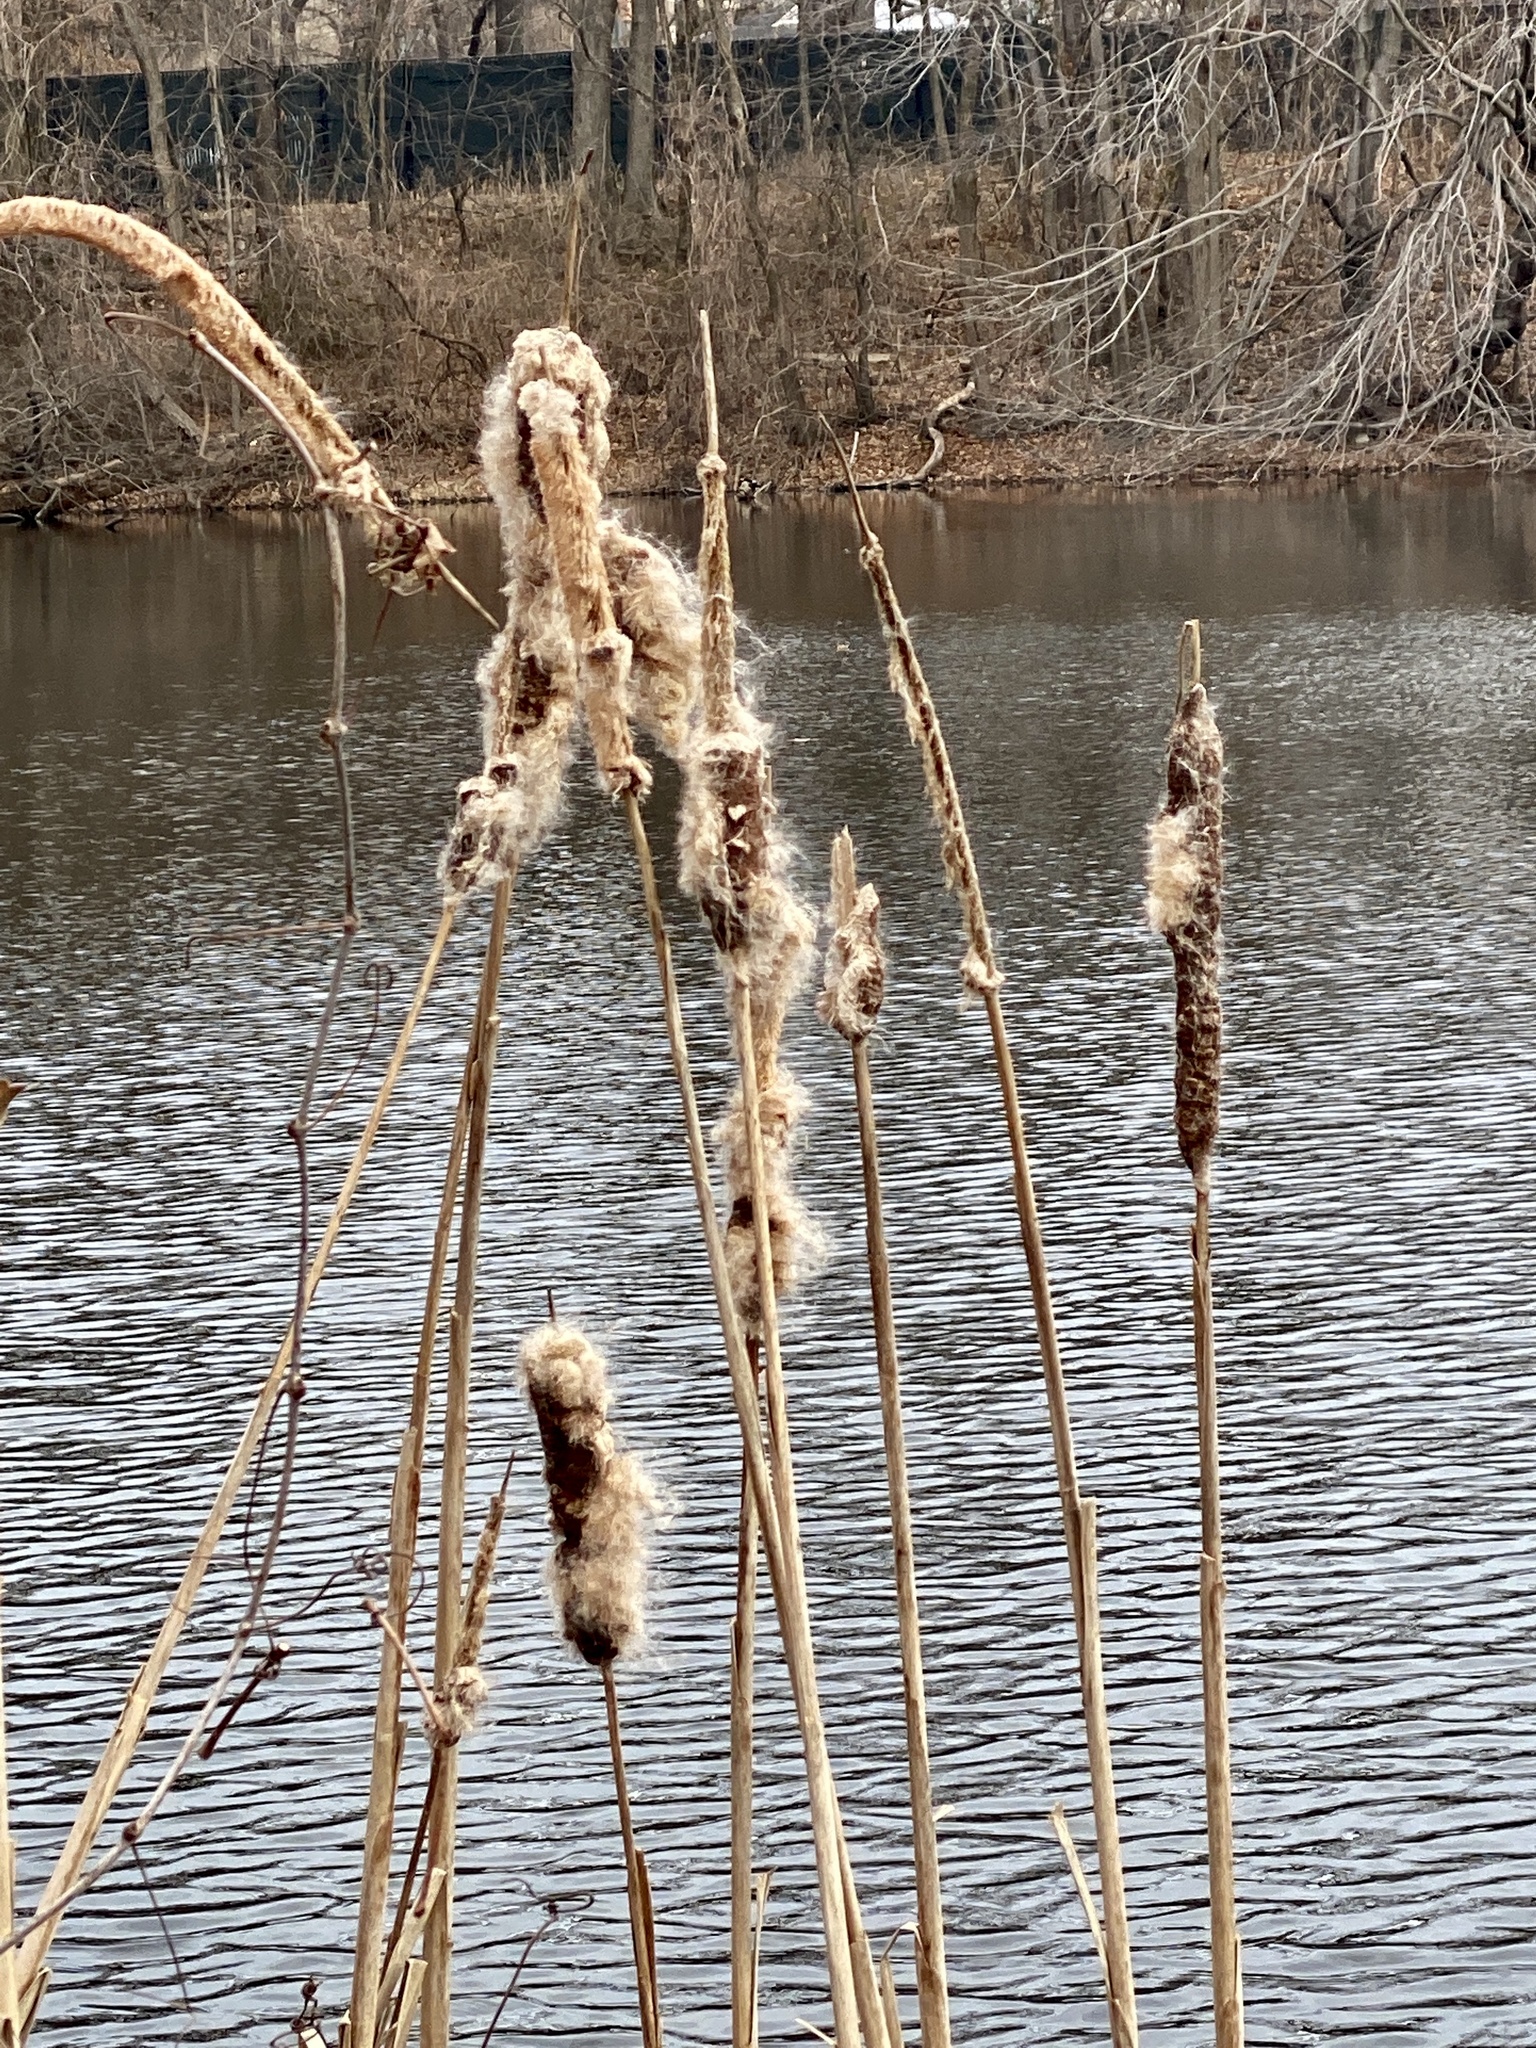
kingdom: Plantae
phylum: Tracheophyta
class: Liliopsida
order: Poales
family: Typhaceae
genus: Typha
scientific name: Typha
